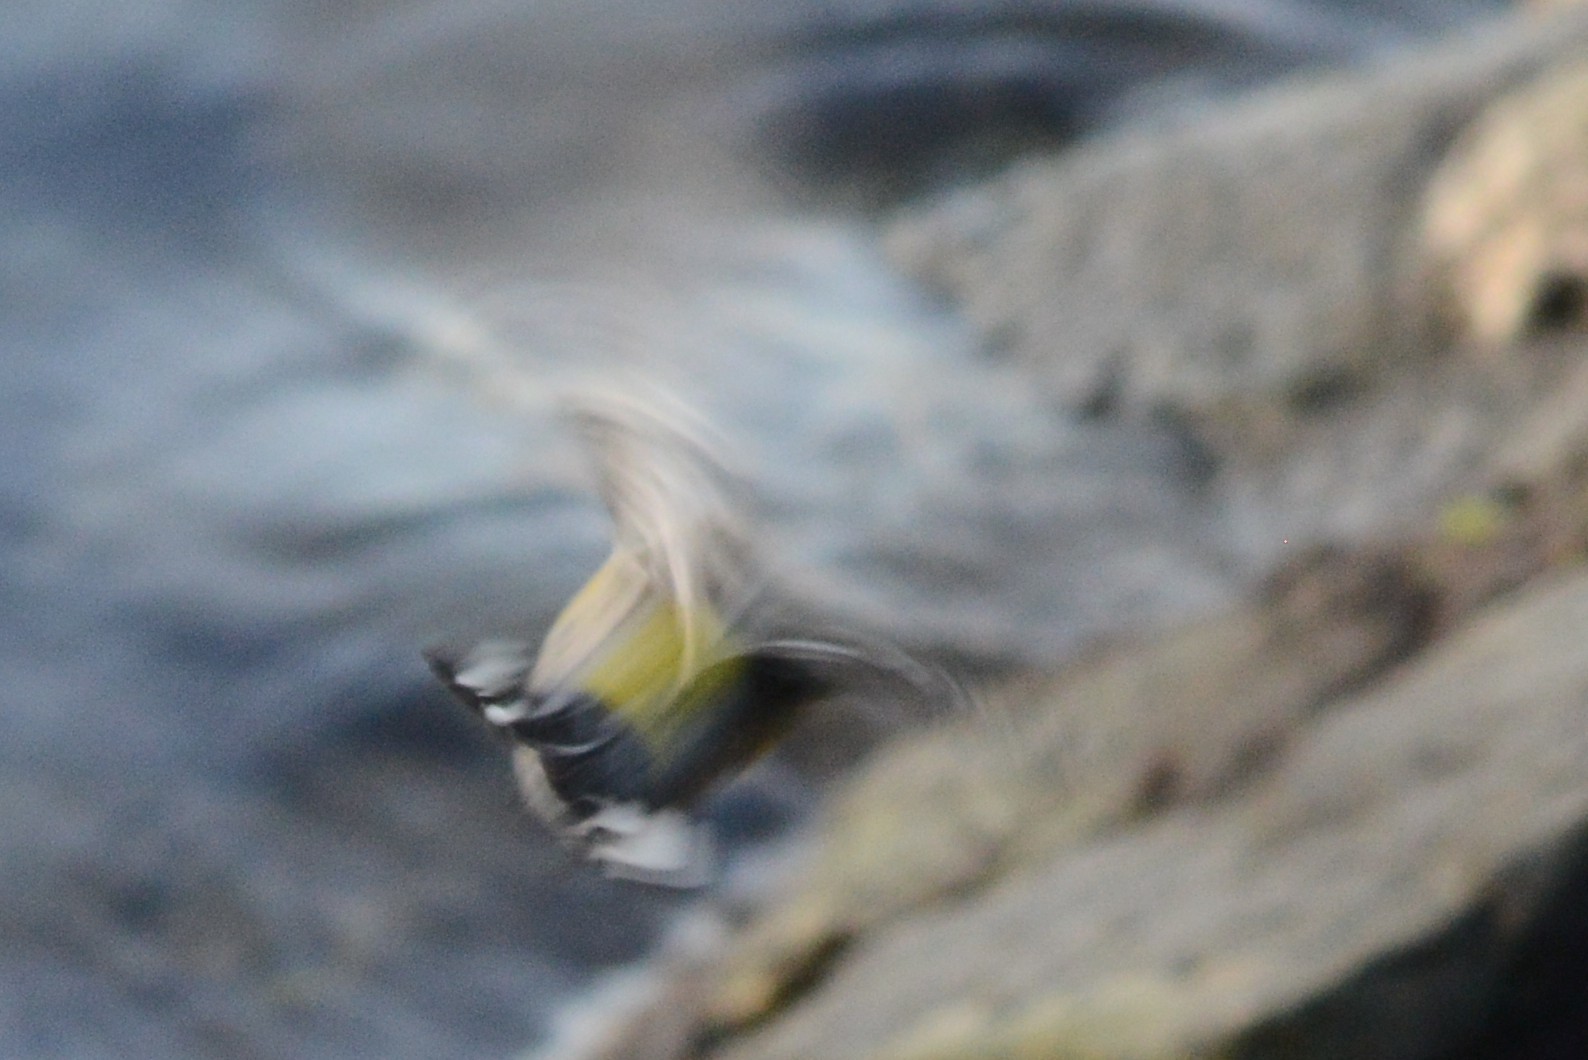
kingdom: Animalia
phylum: Chordata
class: Aves
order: Passeriformes
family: Parulidae
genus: Setophaga
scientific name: Setophaga auduboni
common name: Audubon's warbler
